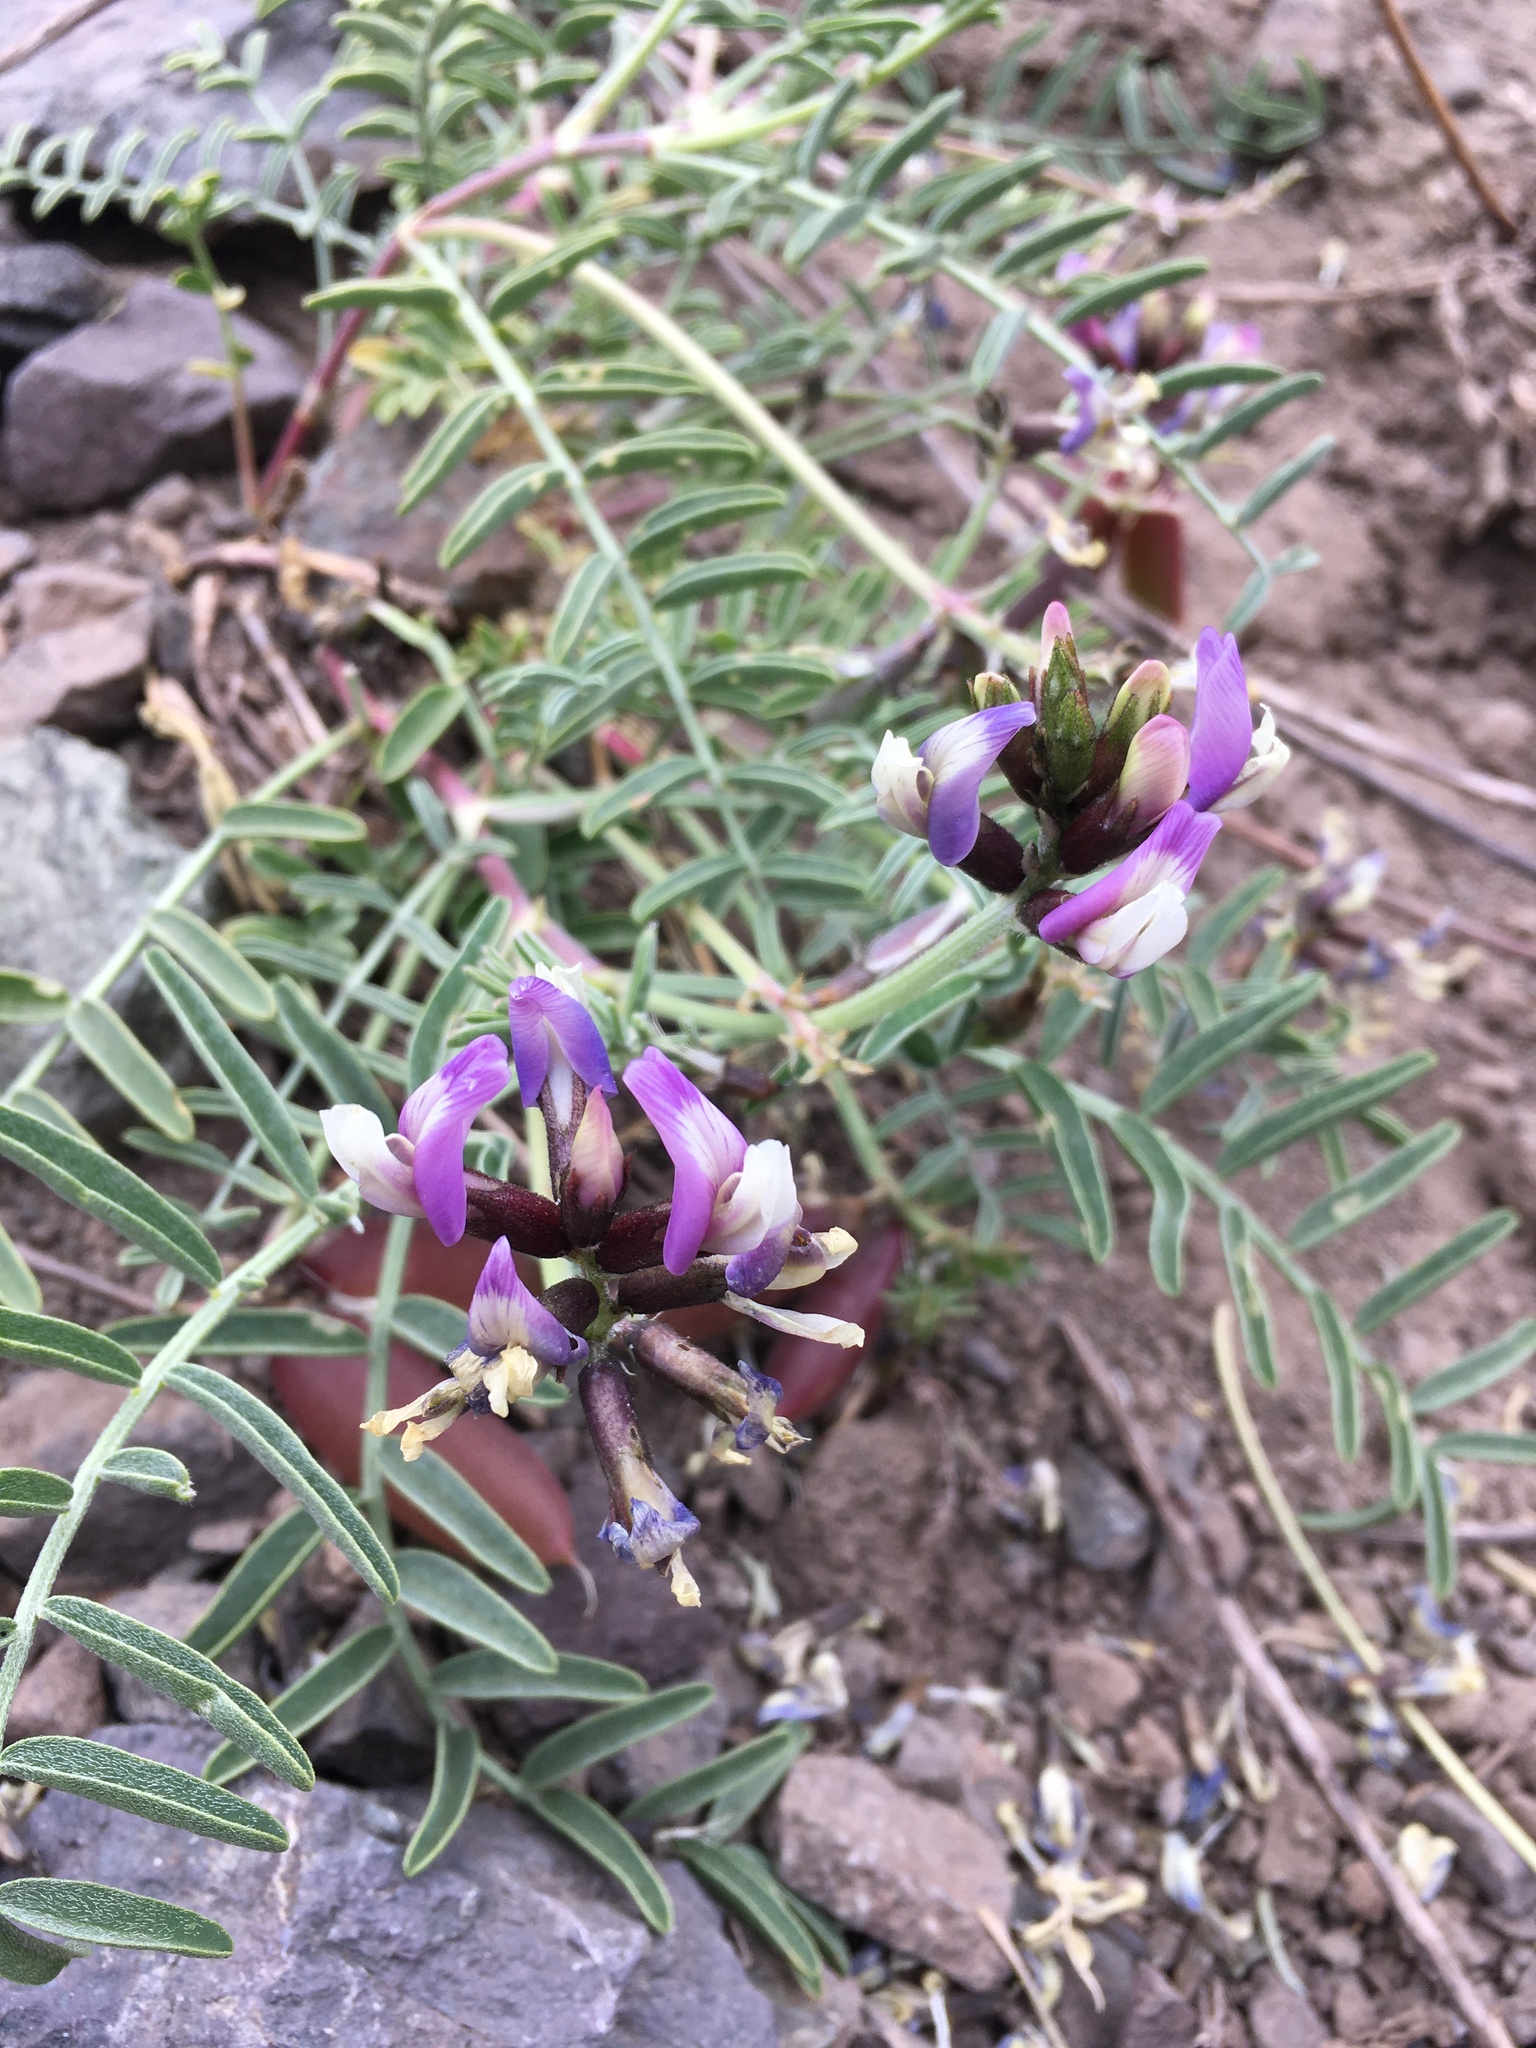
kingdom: Plantae
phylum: Tracheophyta
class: Magnoliopsida
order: Fabales
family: Fabaceae
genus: Astragalus
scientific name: Astragalus cruckshanksii
